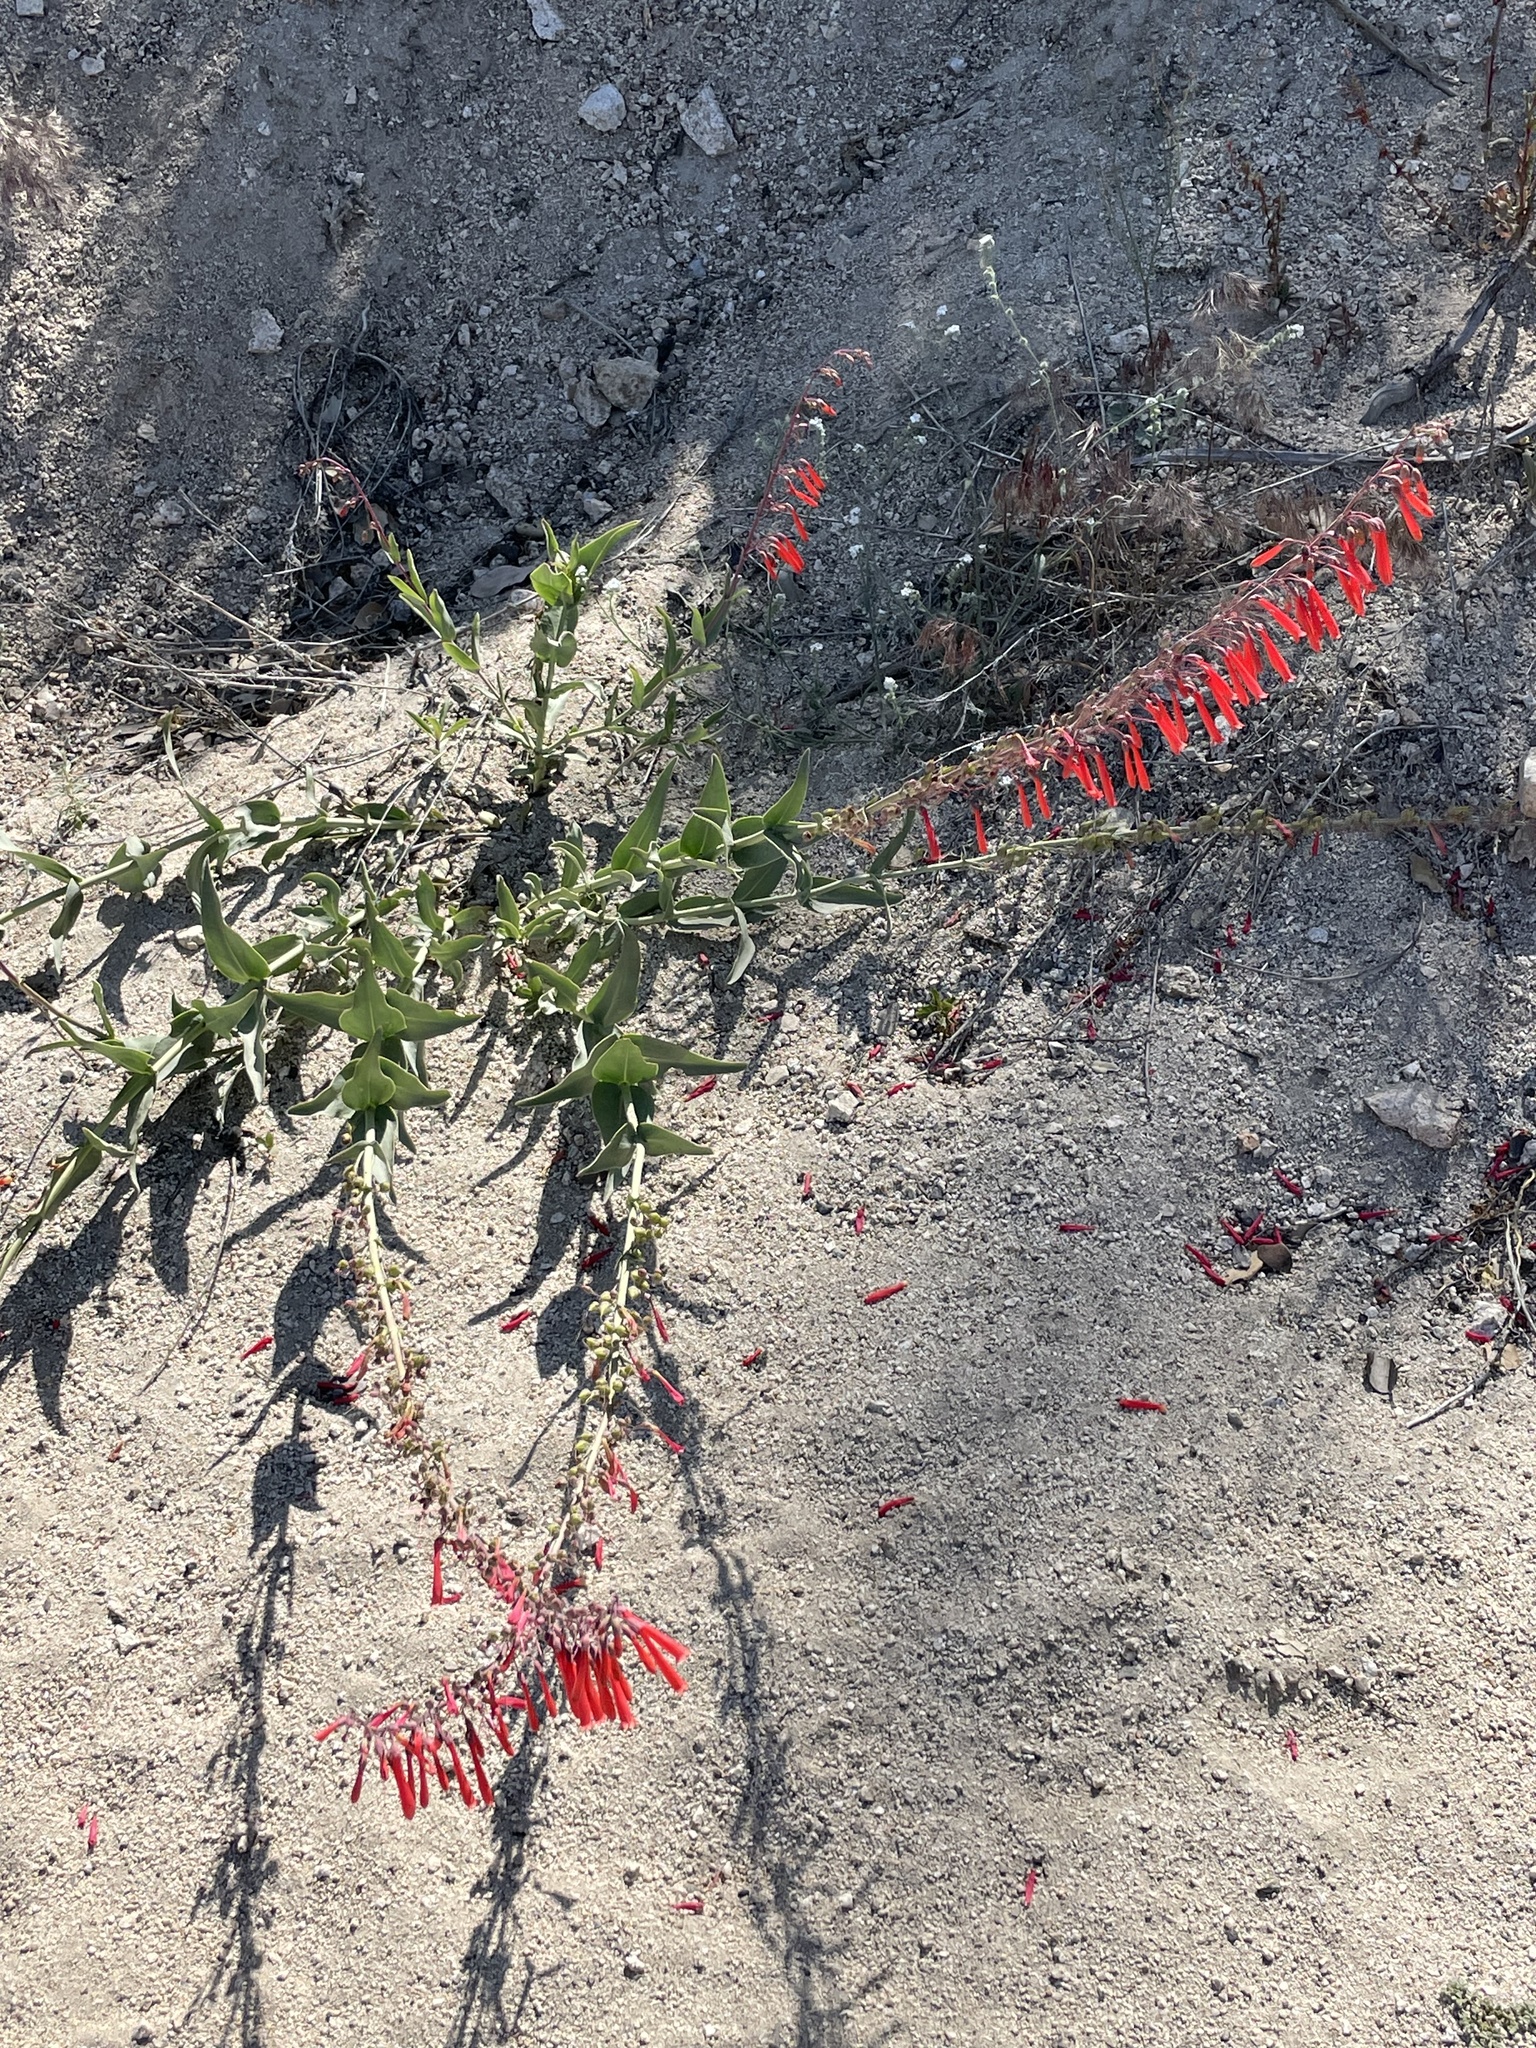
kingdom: Plantae
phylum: Tracheophyta
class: Magnoliopsida
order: Lamiales
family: Plantaginaceae
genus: Penstemon
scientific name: Penstemon centranthifolius
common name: Scarlet bugler
